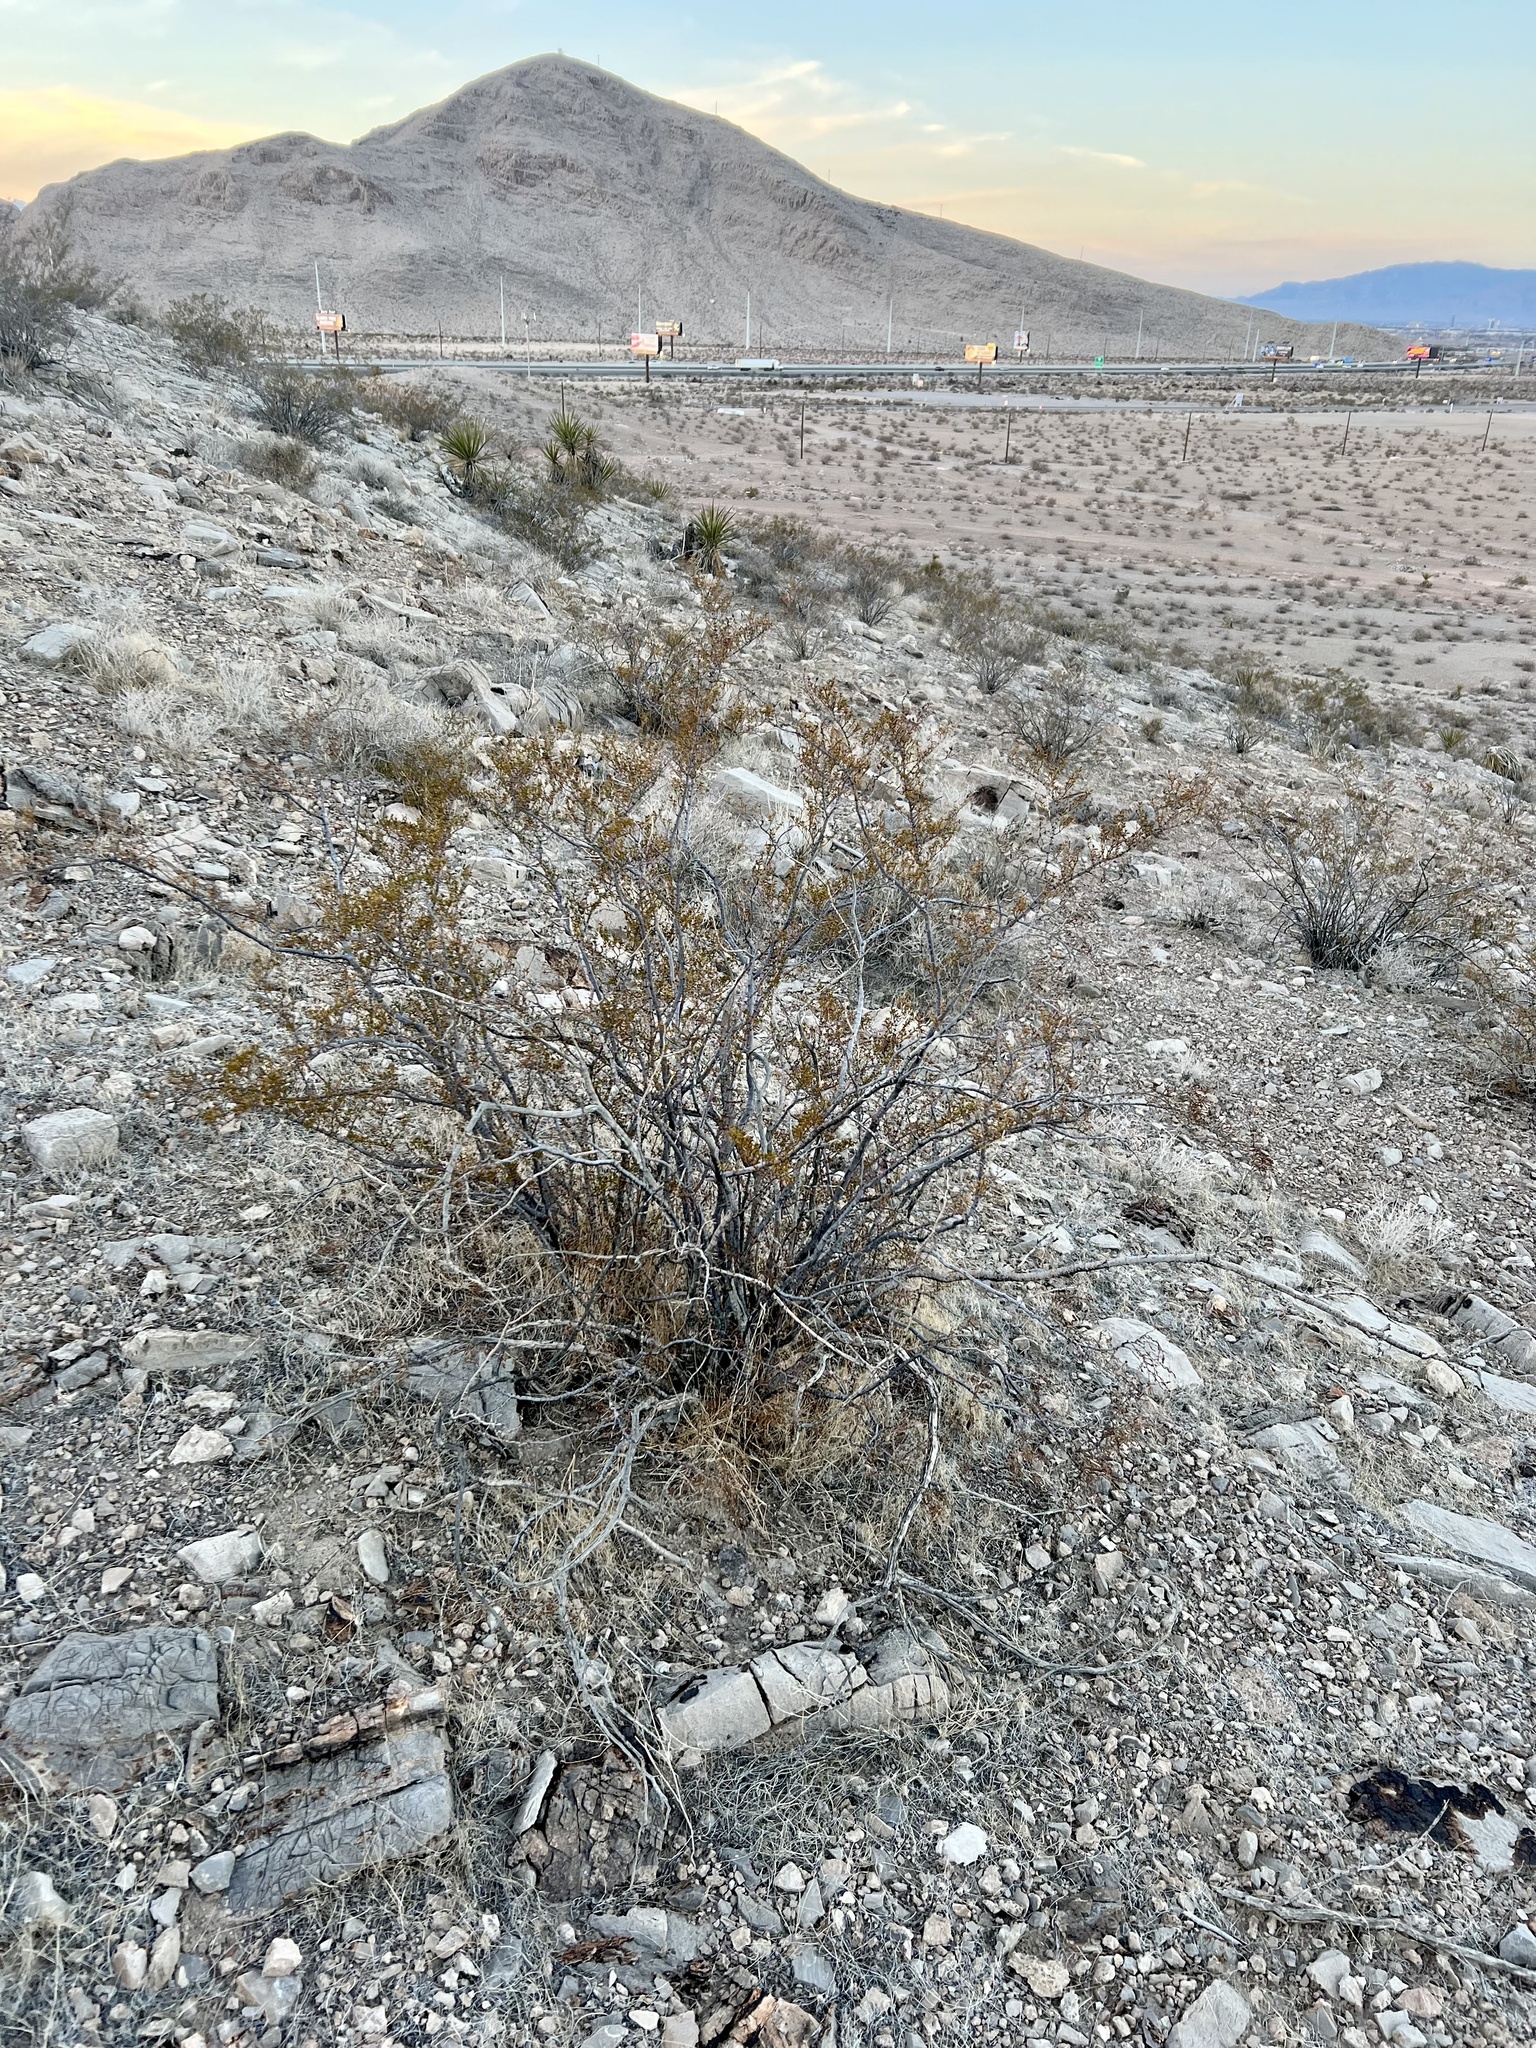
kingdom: Plantae
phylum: Tracheophyta
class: Magnoliopsida
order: Zygophyllales
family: Zygophyllaceae
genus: Larrea
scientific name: Larrea tridentata
